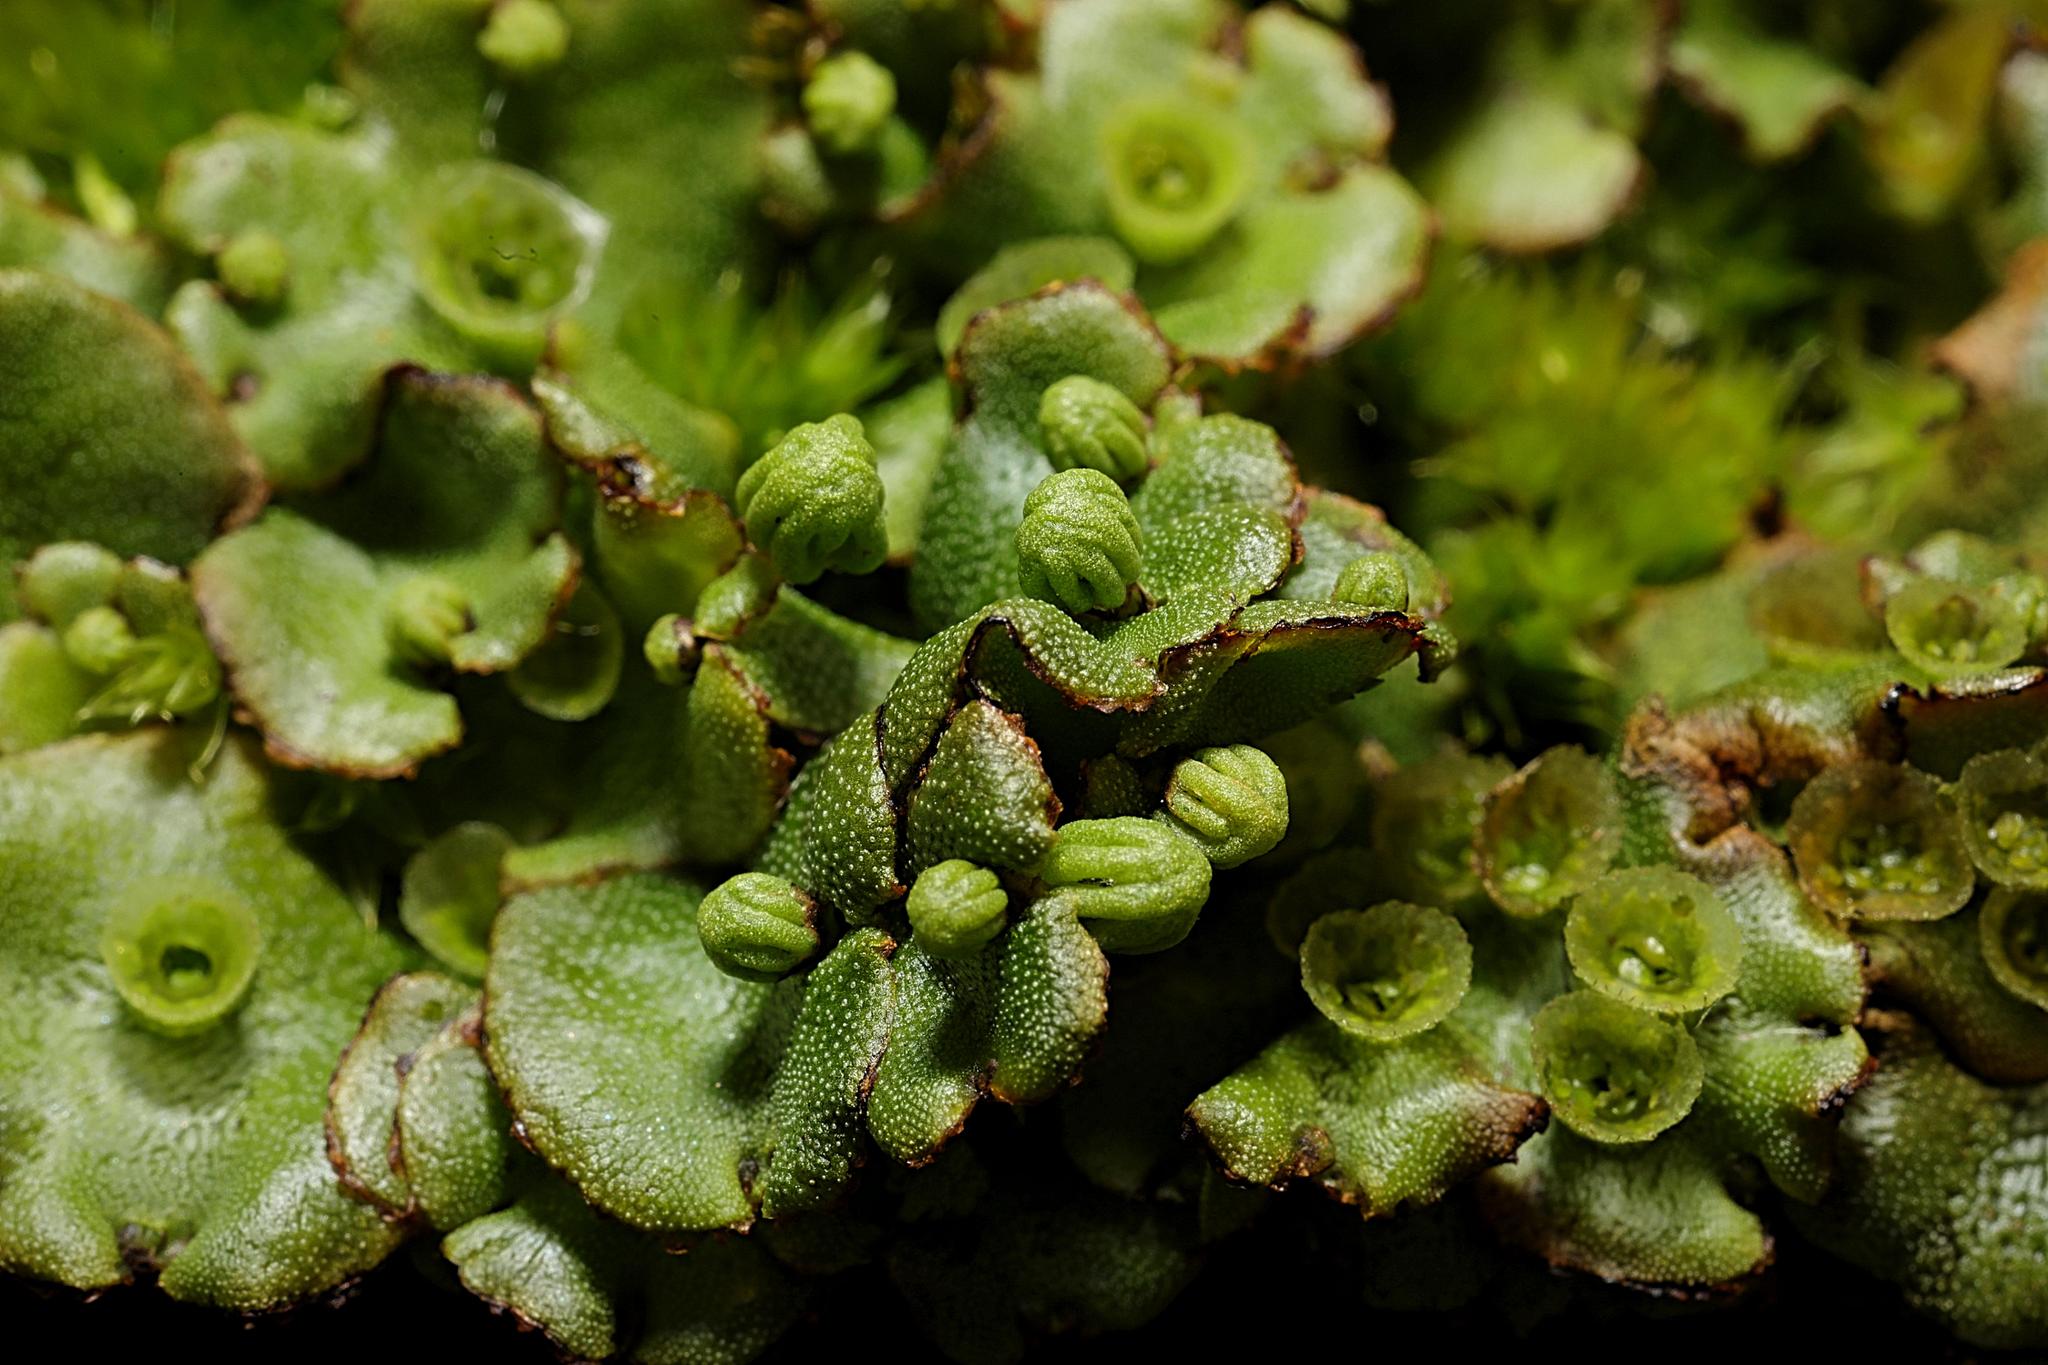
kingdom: Plantae
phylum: Marchantiophyta
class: Marchantiopsida
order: Marchantiales
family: Marchantiaceae
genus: Marchantia
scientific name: Marchantia polymorpha
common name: Common liverwort
